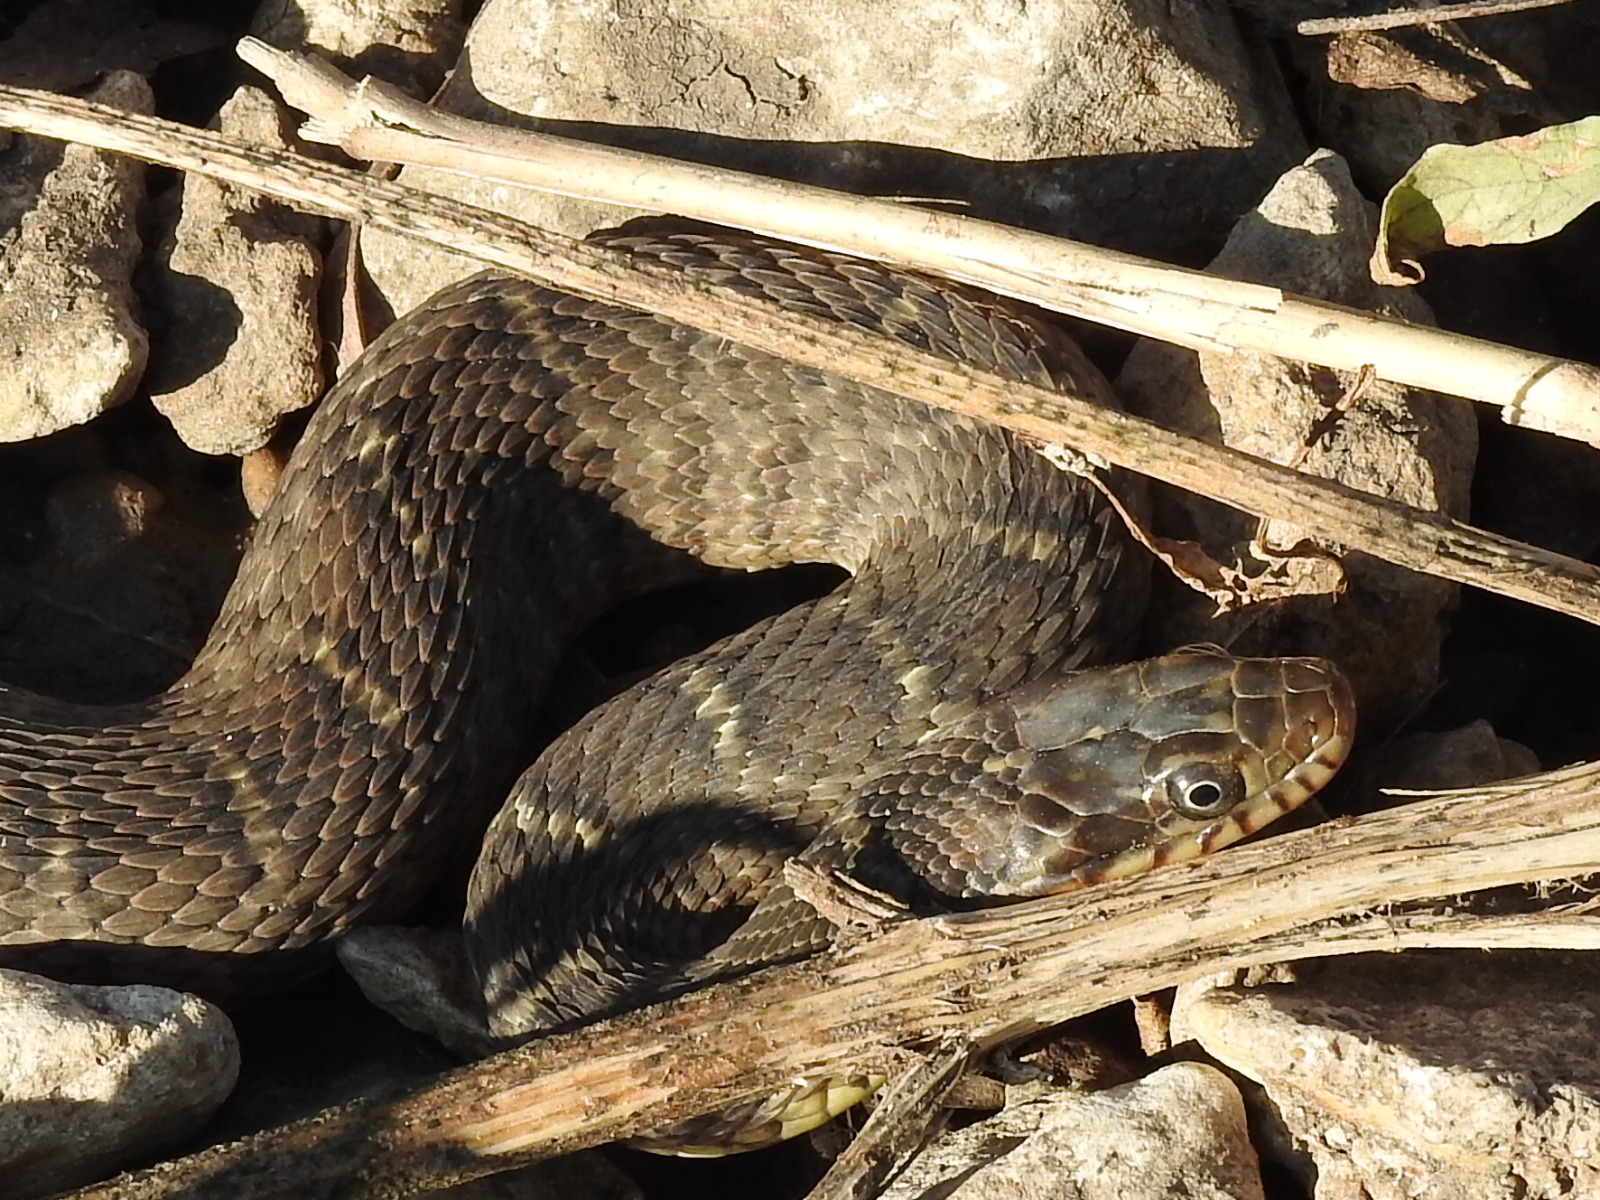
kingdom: Animalia
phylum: Chordata
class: Squamata
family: Colubridae
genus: Nerodia
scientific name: Nerodia erythrogaster
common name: Plainbelly water snake
